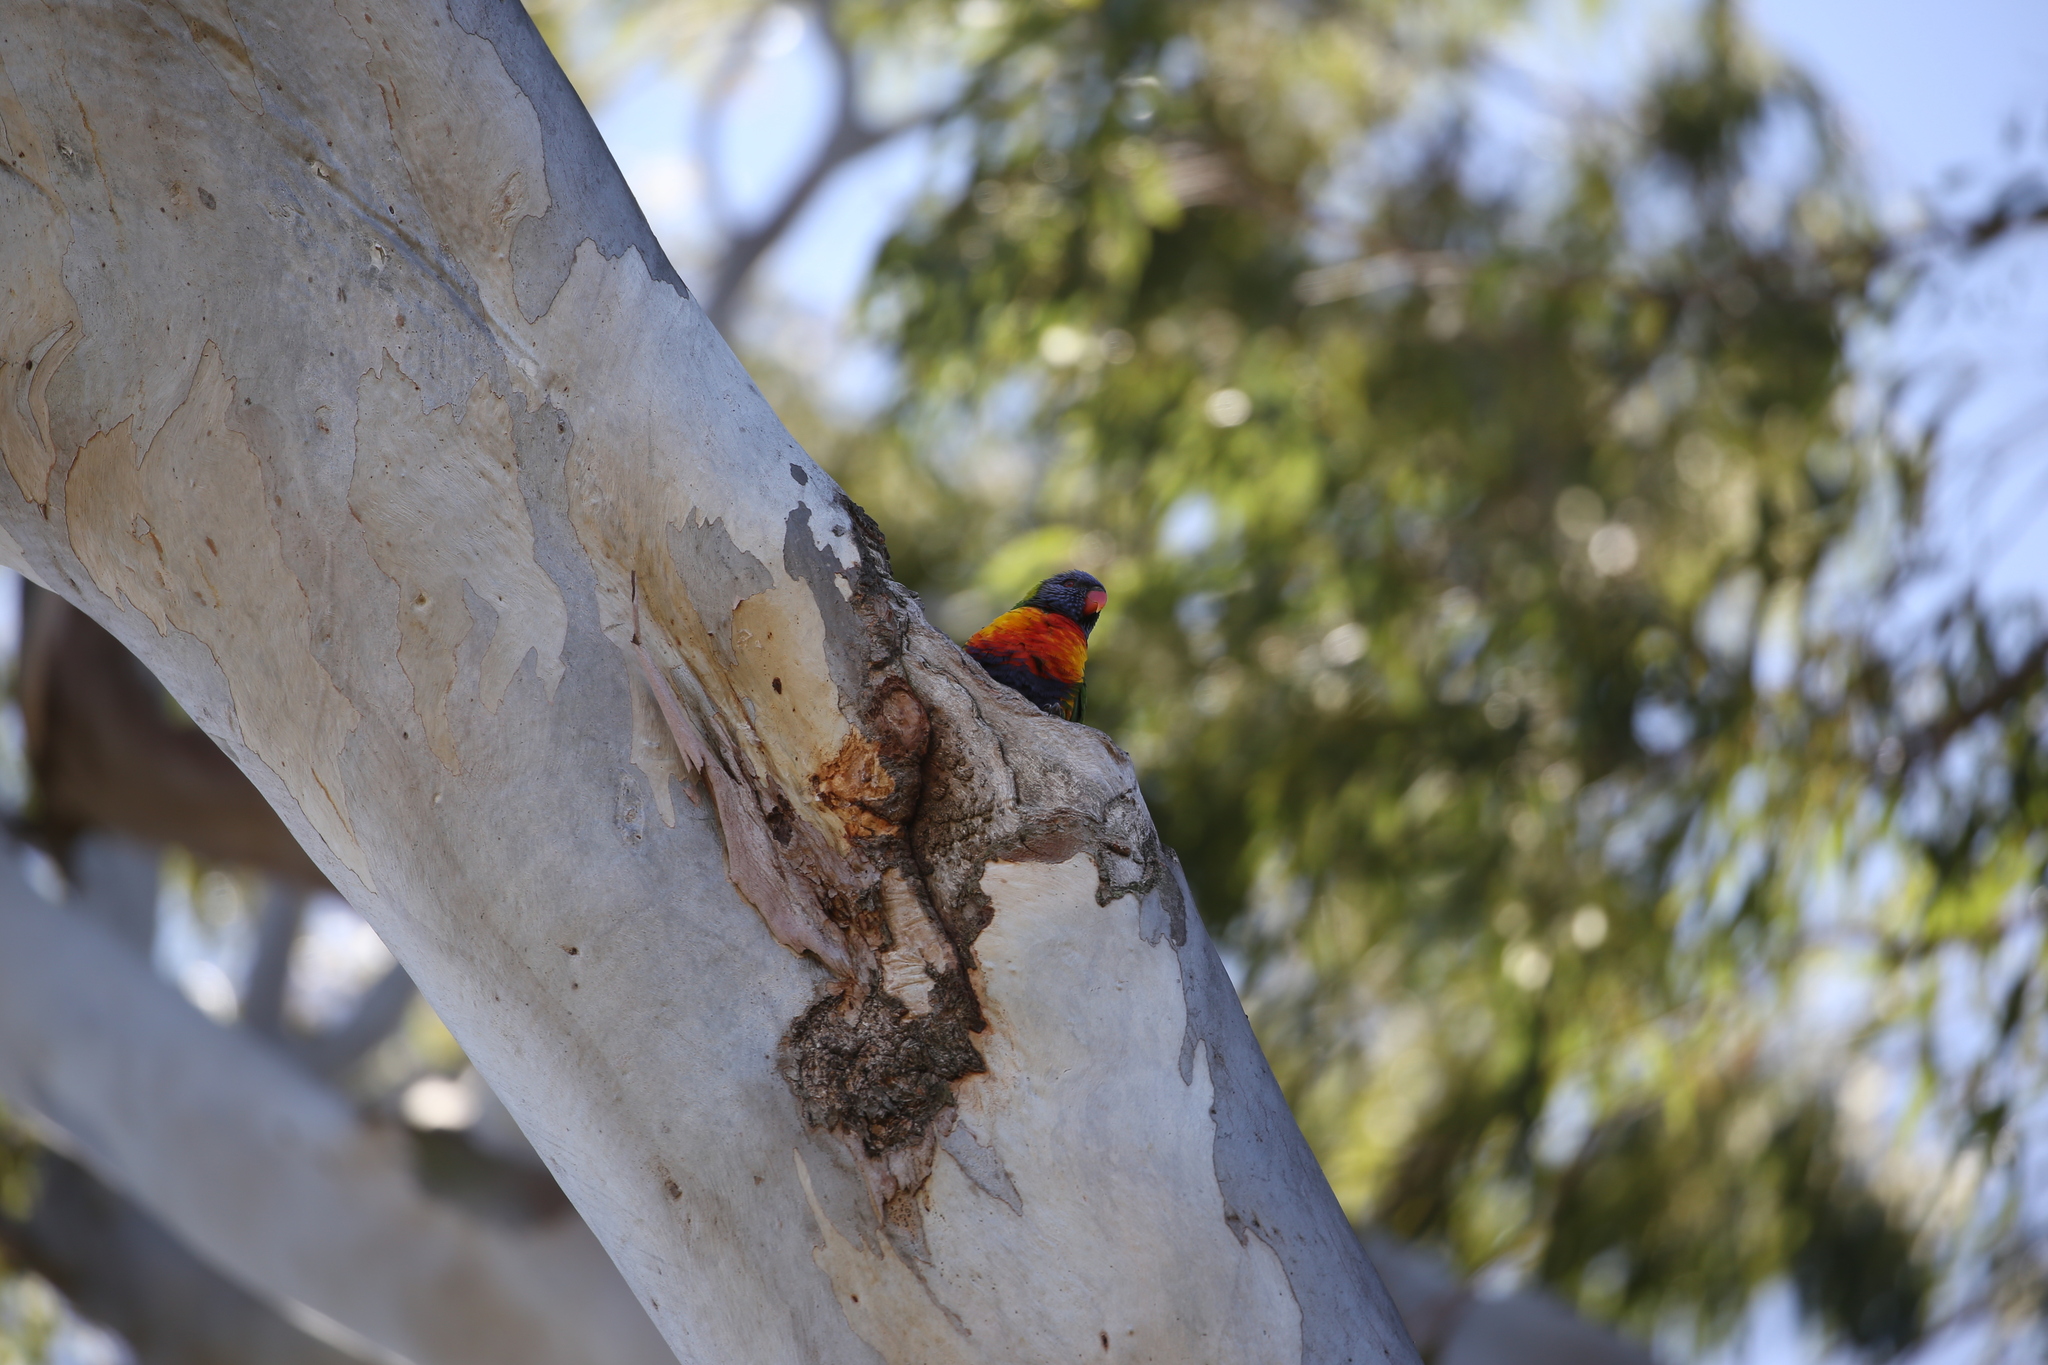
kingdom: Animalia
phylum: Chordata
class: Aves
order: Psittaciformes
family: Psittacidae
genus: Trichoglossus
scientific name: Trichoglossus haematodus
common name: Coconut lorikeet
